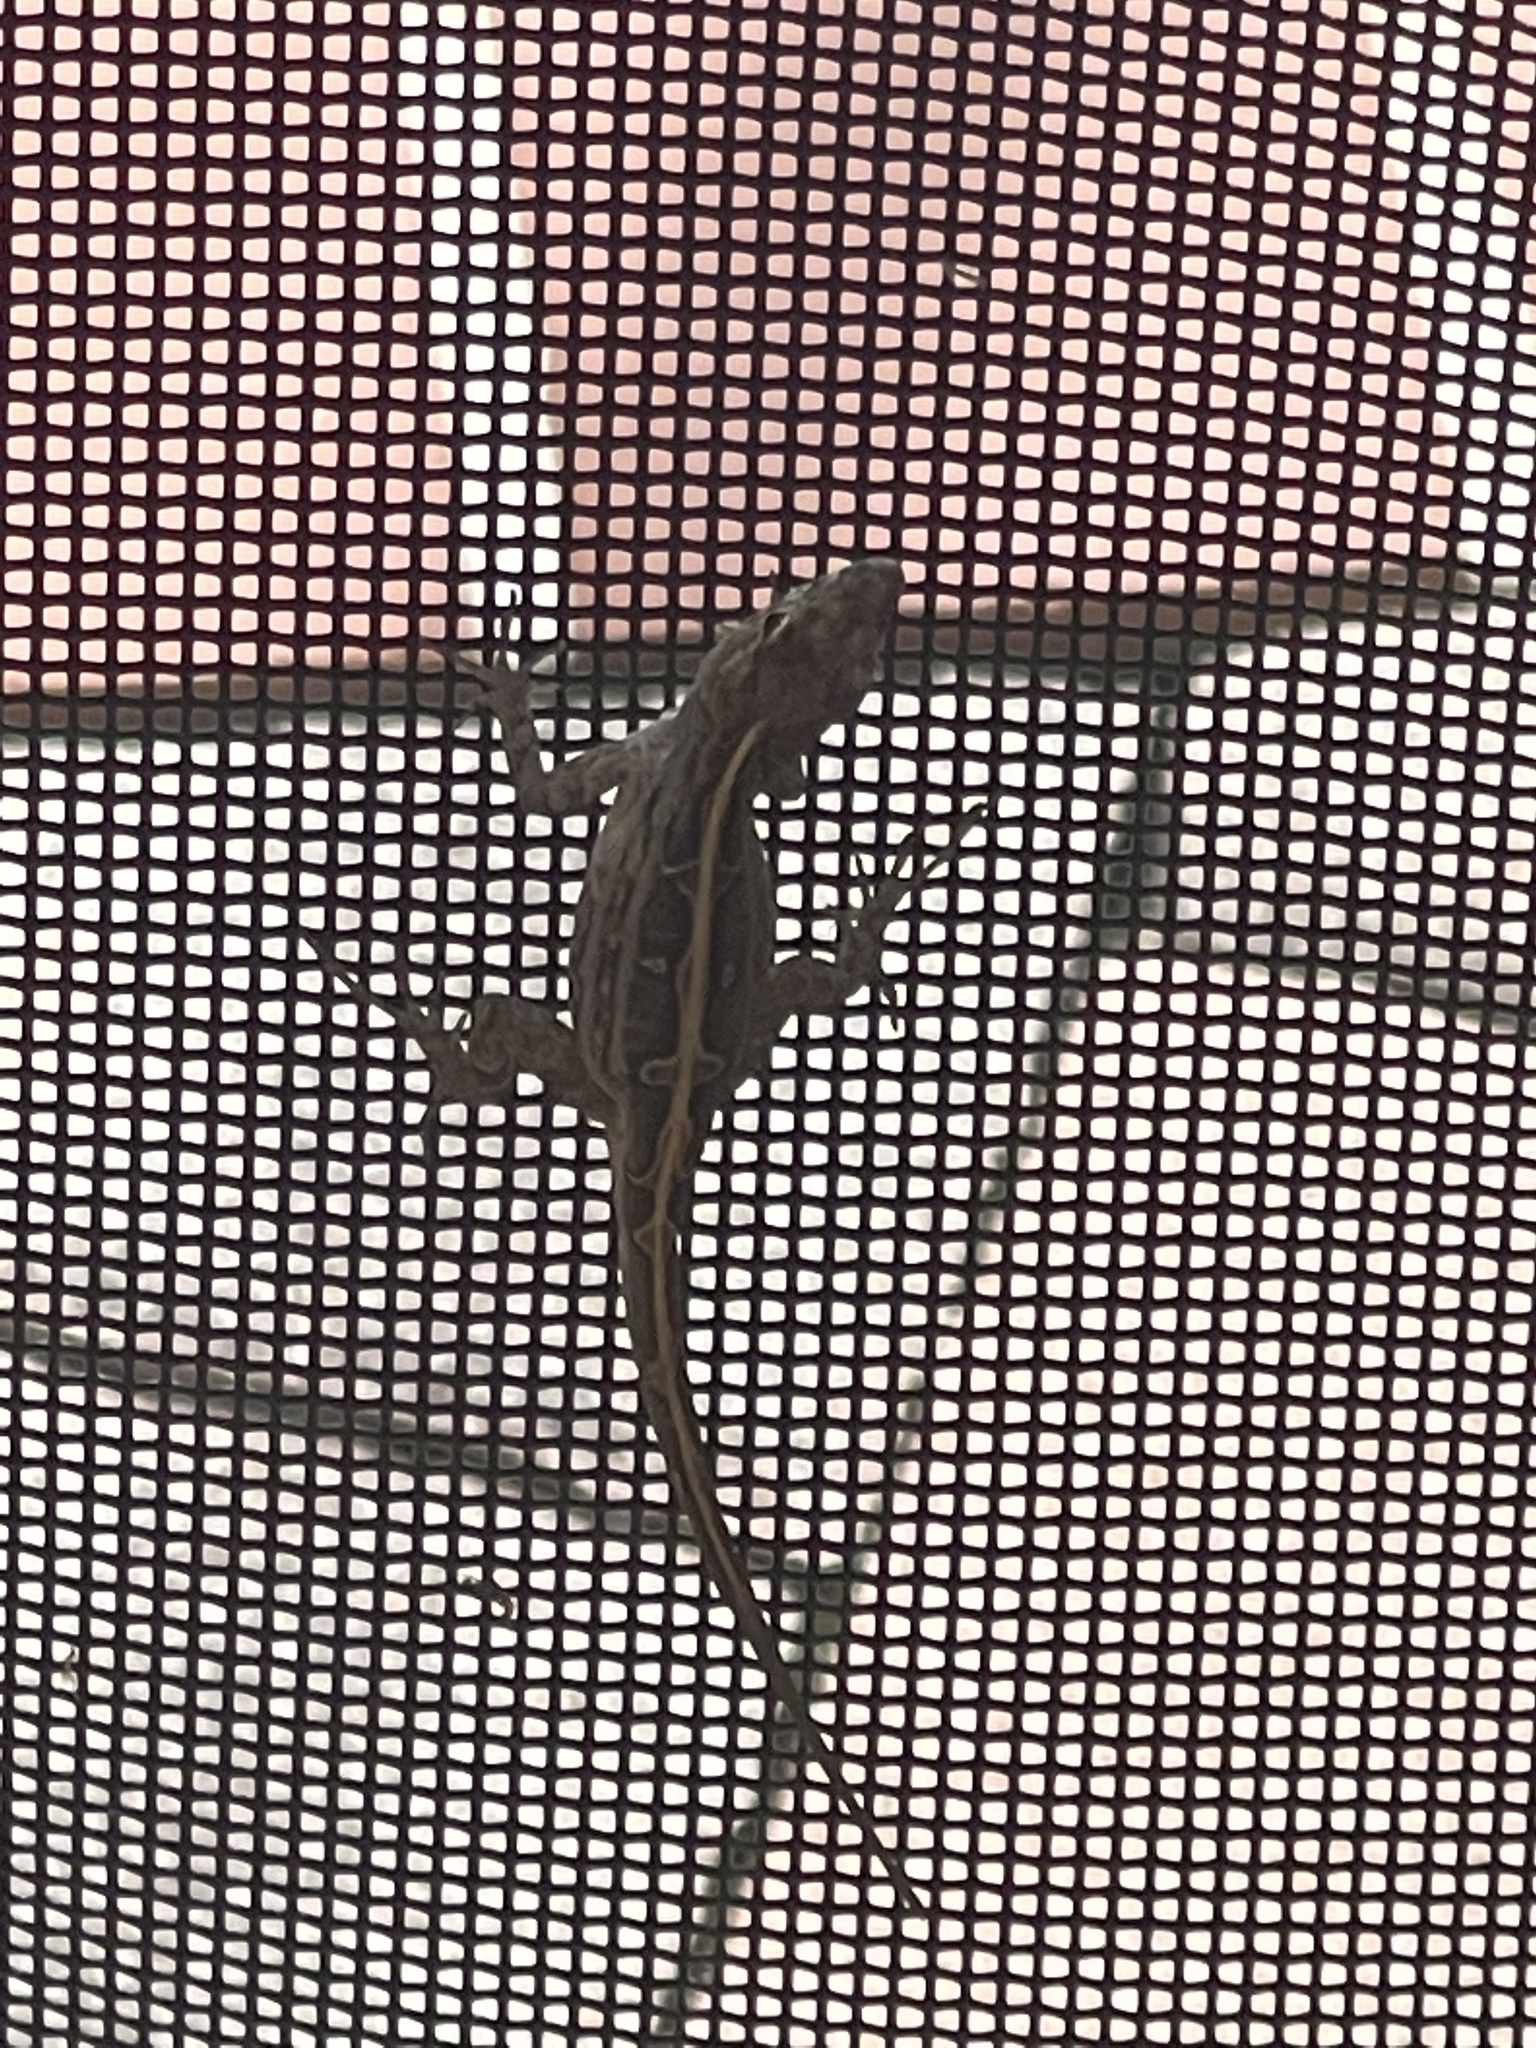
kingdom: Animalia
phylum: Chordata
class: Squamata
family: Dactyloidae
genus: Anolis
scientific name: Anolis sagrei
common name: Brown anole
